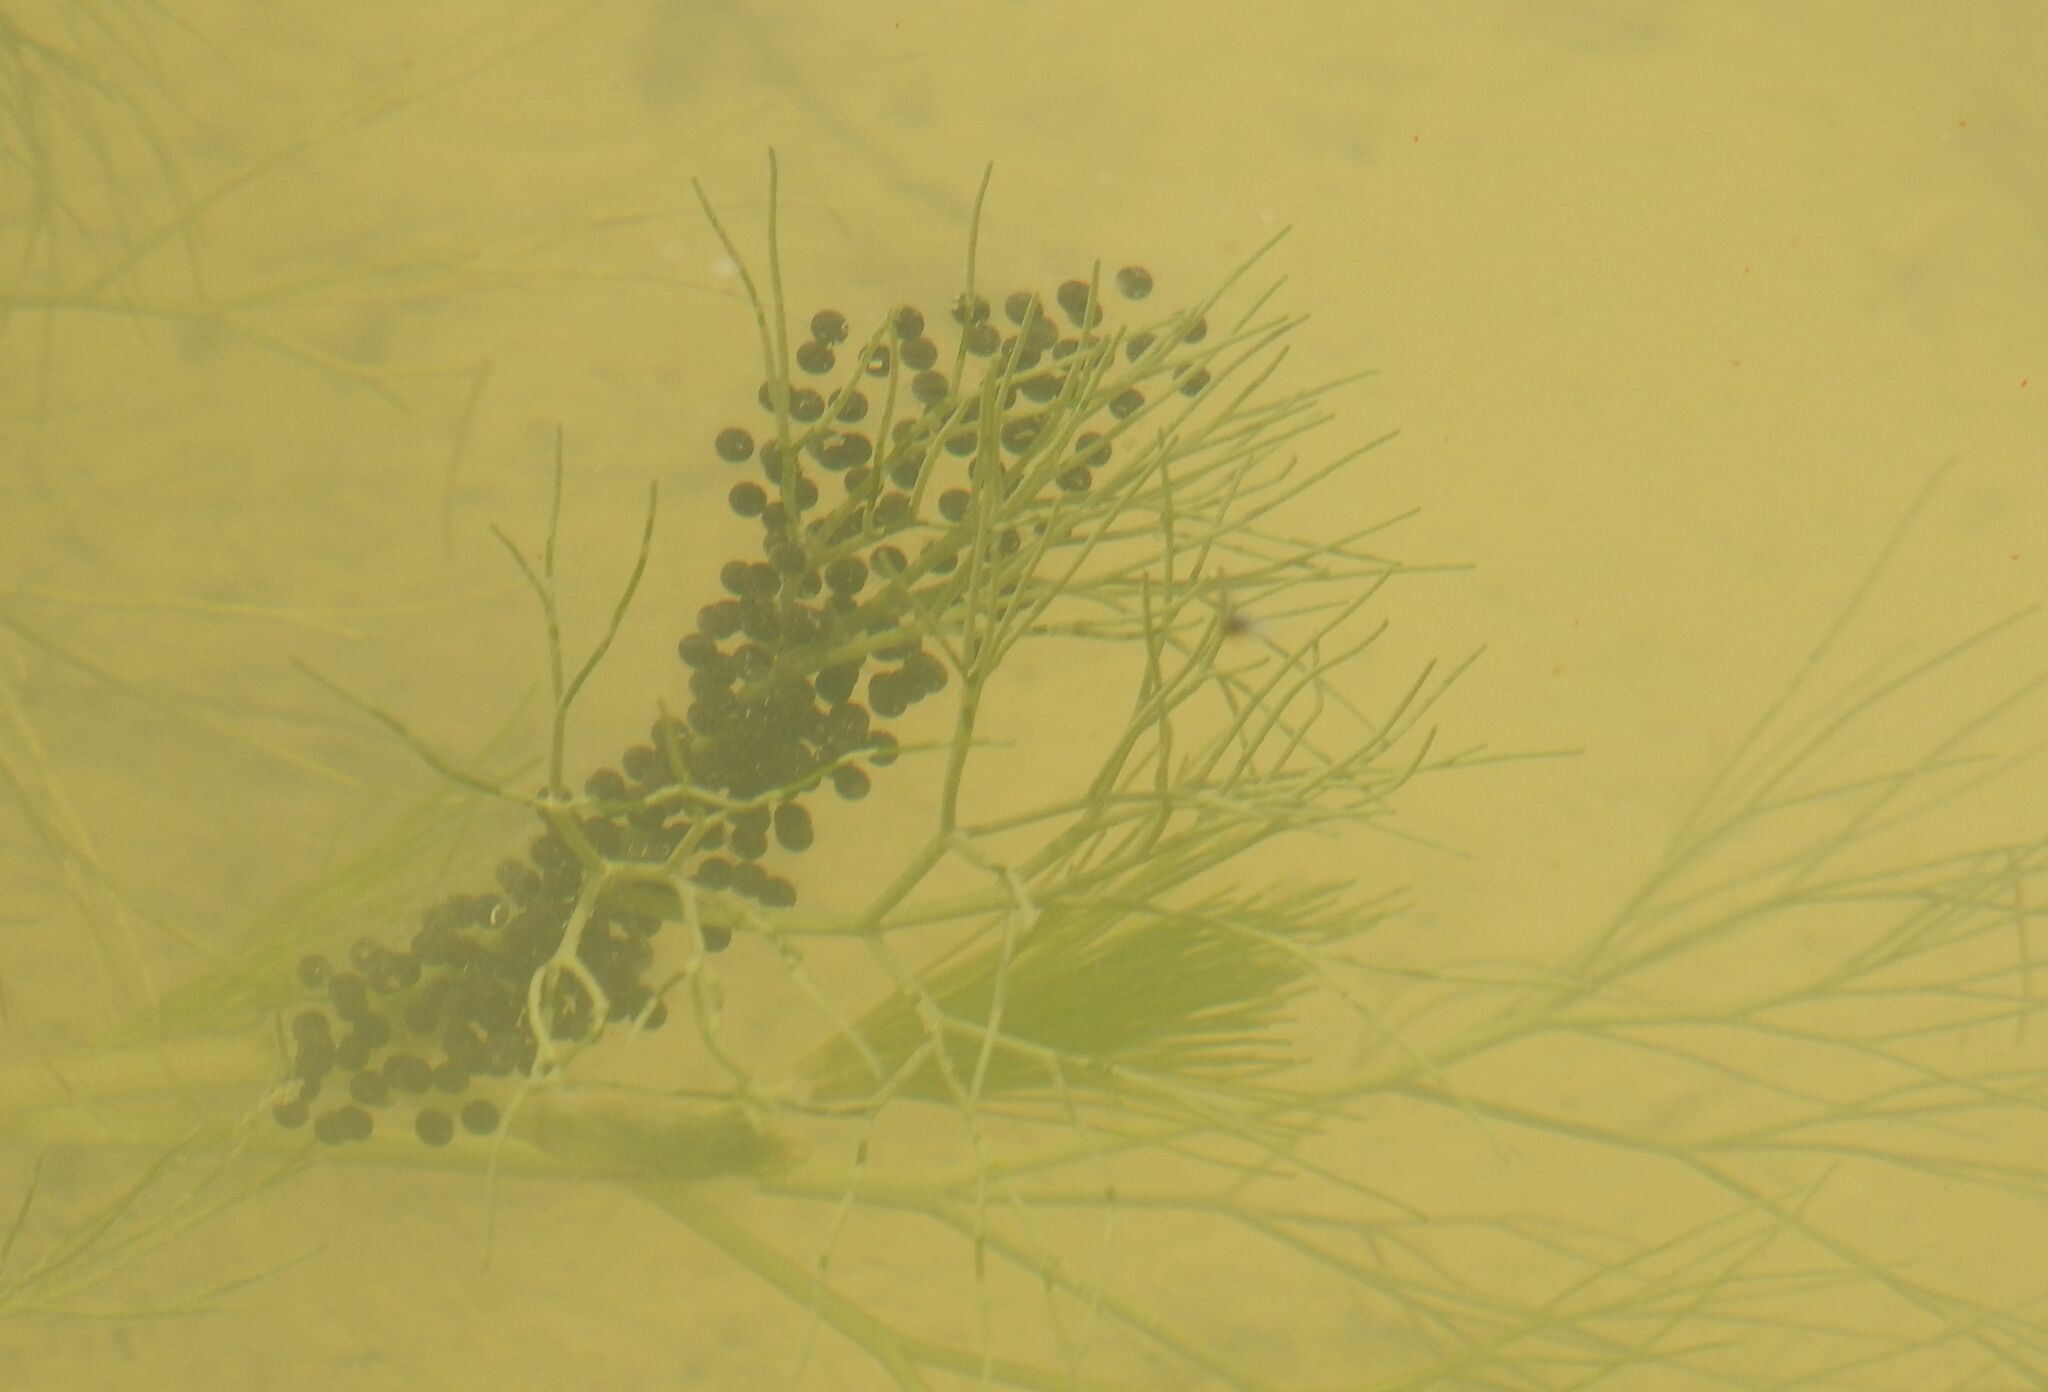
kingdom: Animalia
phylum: Chordata
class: Amphibia
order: Anura
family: Pelodytidae
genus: Pelodytes
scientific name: Pelodytes punctatus
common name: Parsley frog
